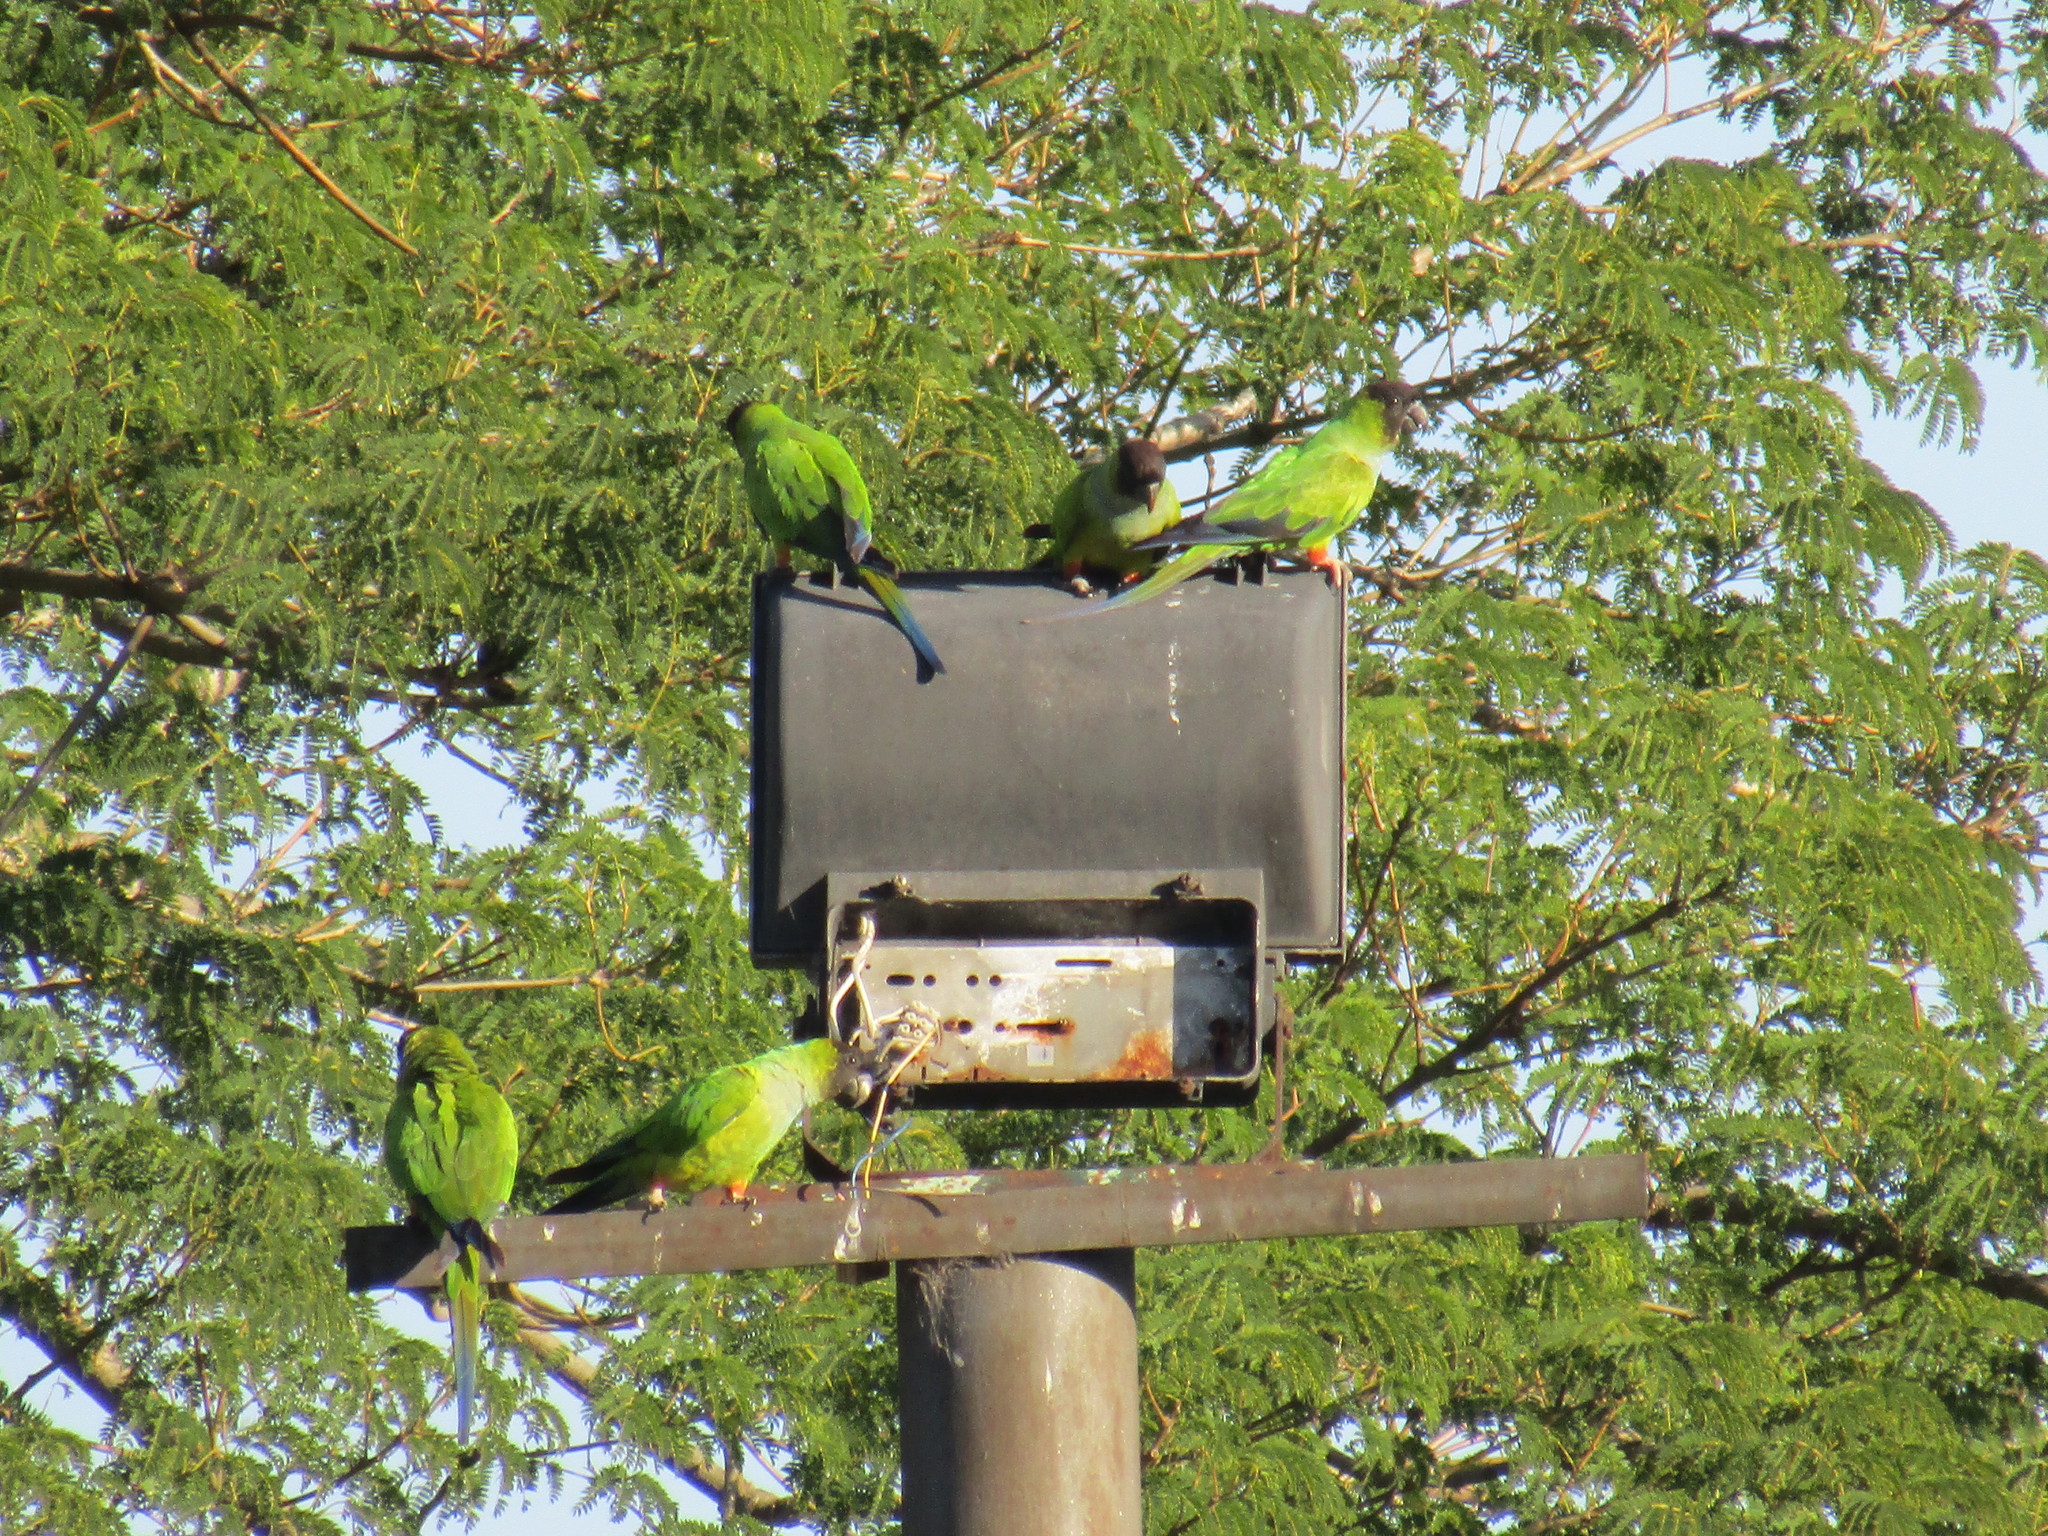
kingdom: Animalia
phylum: Chordata
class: Aves
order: Psittaciformes
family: Psittacidae
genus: Nandayus
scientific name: Nandayus nenday
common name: Nanday parakeet
